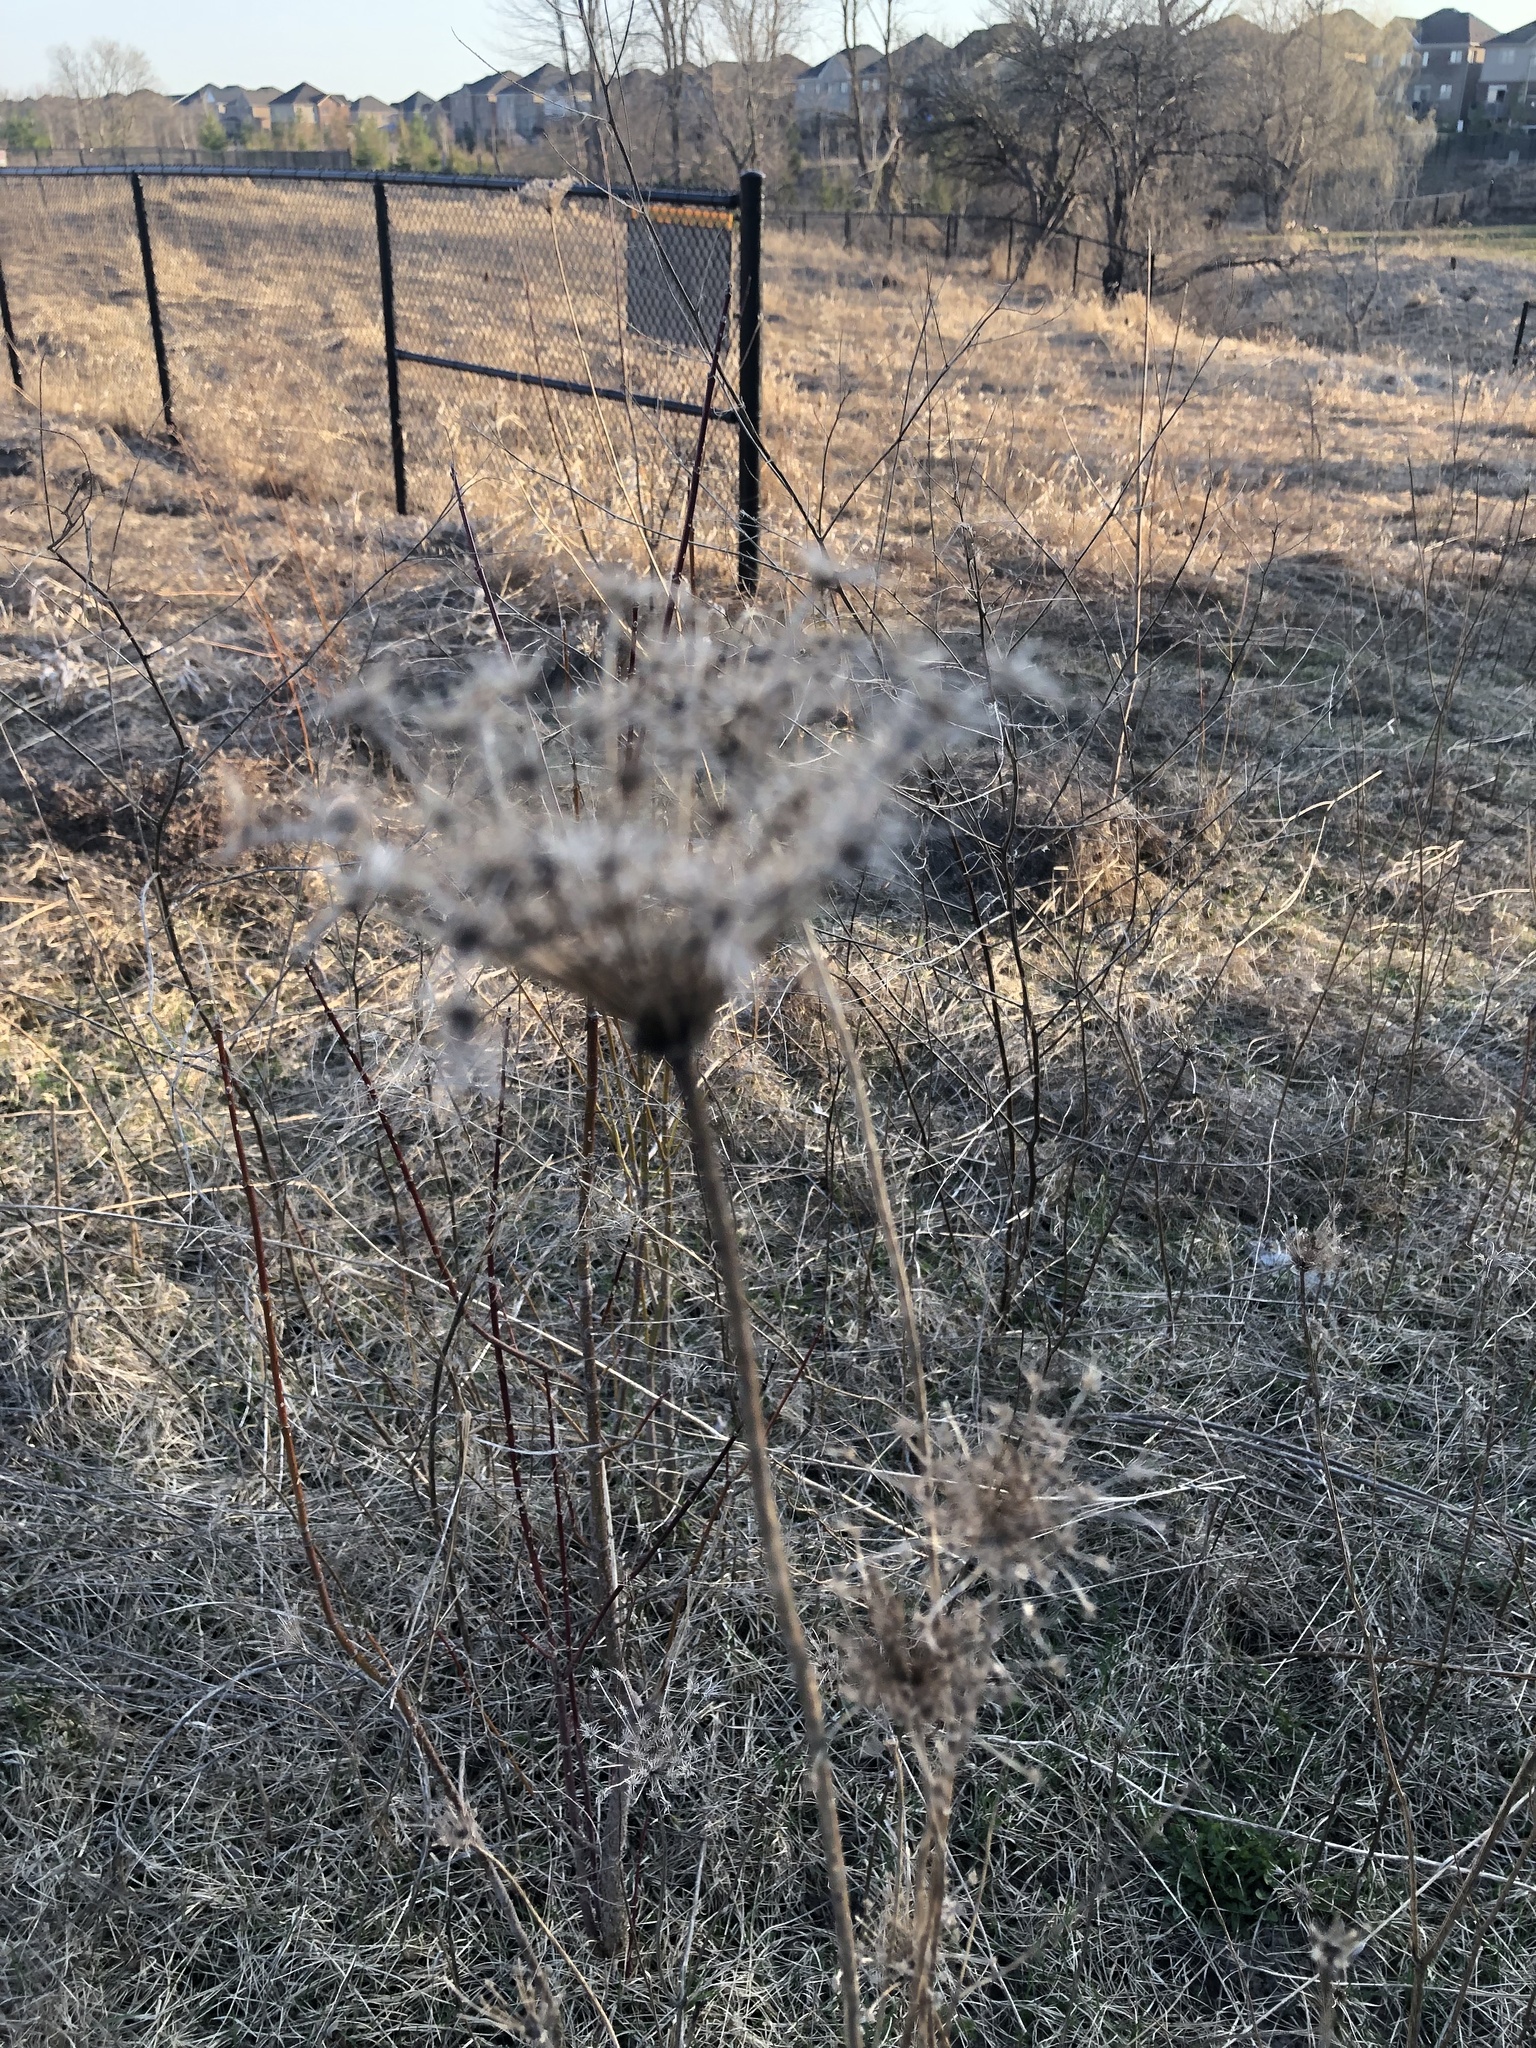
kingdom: Plantae
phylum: Tracheophyta
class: Magnoliopsida
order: Apiales
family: Apiaceae
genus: Daucus
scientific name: Daucus carota
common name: Wild carrot
